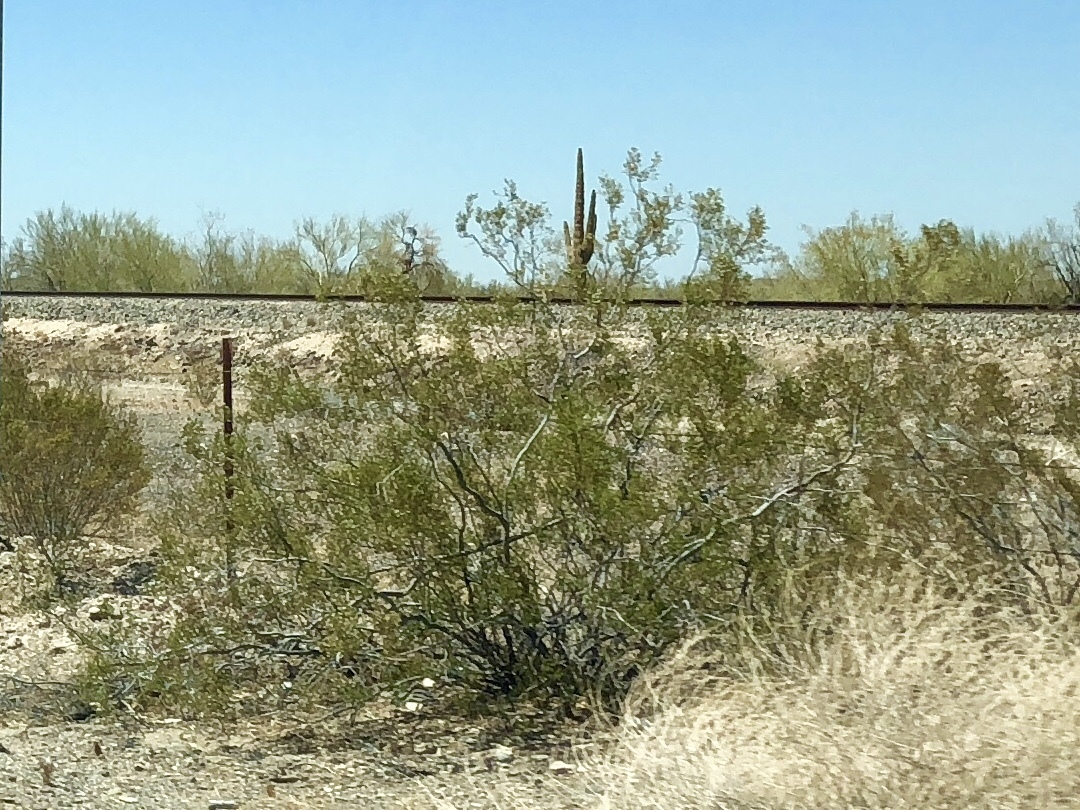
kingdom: Plantae
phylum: Tracheophyta
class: Magnoliopsida
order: Zygophyllales
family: Zygophyllaceae
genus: Larrea
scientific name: Larrea tridentata
